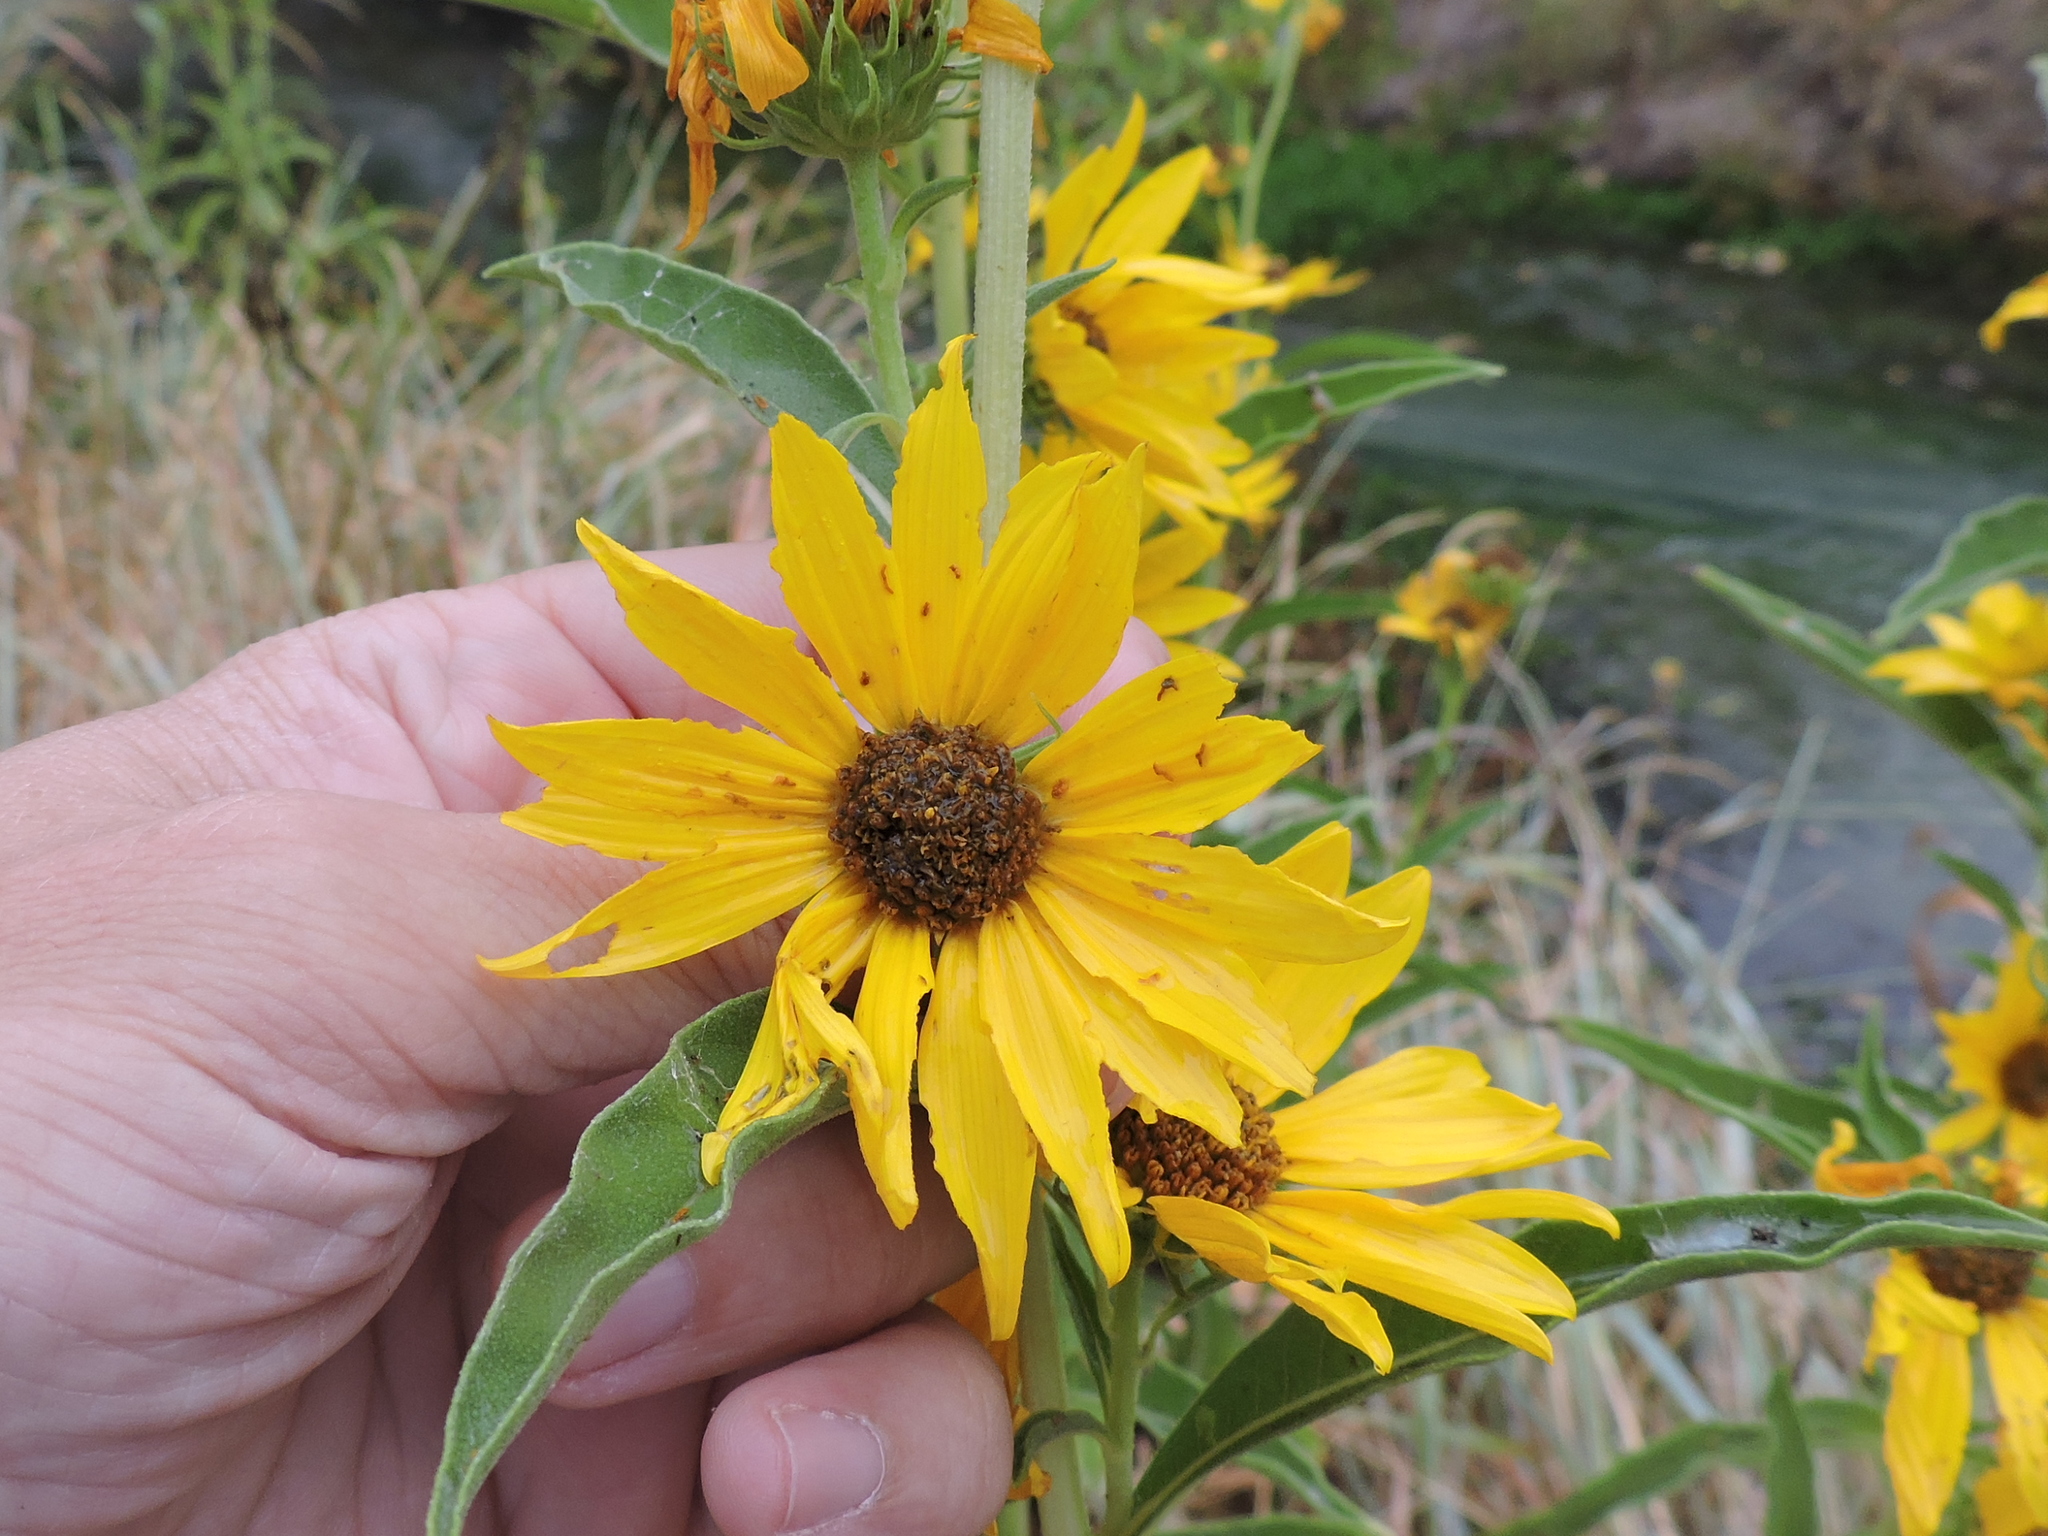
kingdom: Plantae
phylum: Tracheophyta
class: Magnoliopsida
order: Asterales
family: Asteraceae
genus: Helianthus
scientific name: Helianthus maximiliani
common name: Maximilian's sunflower
